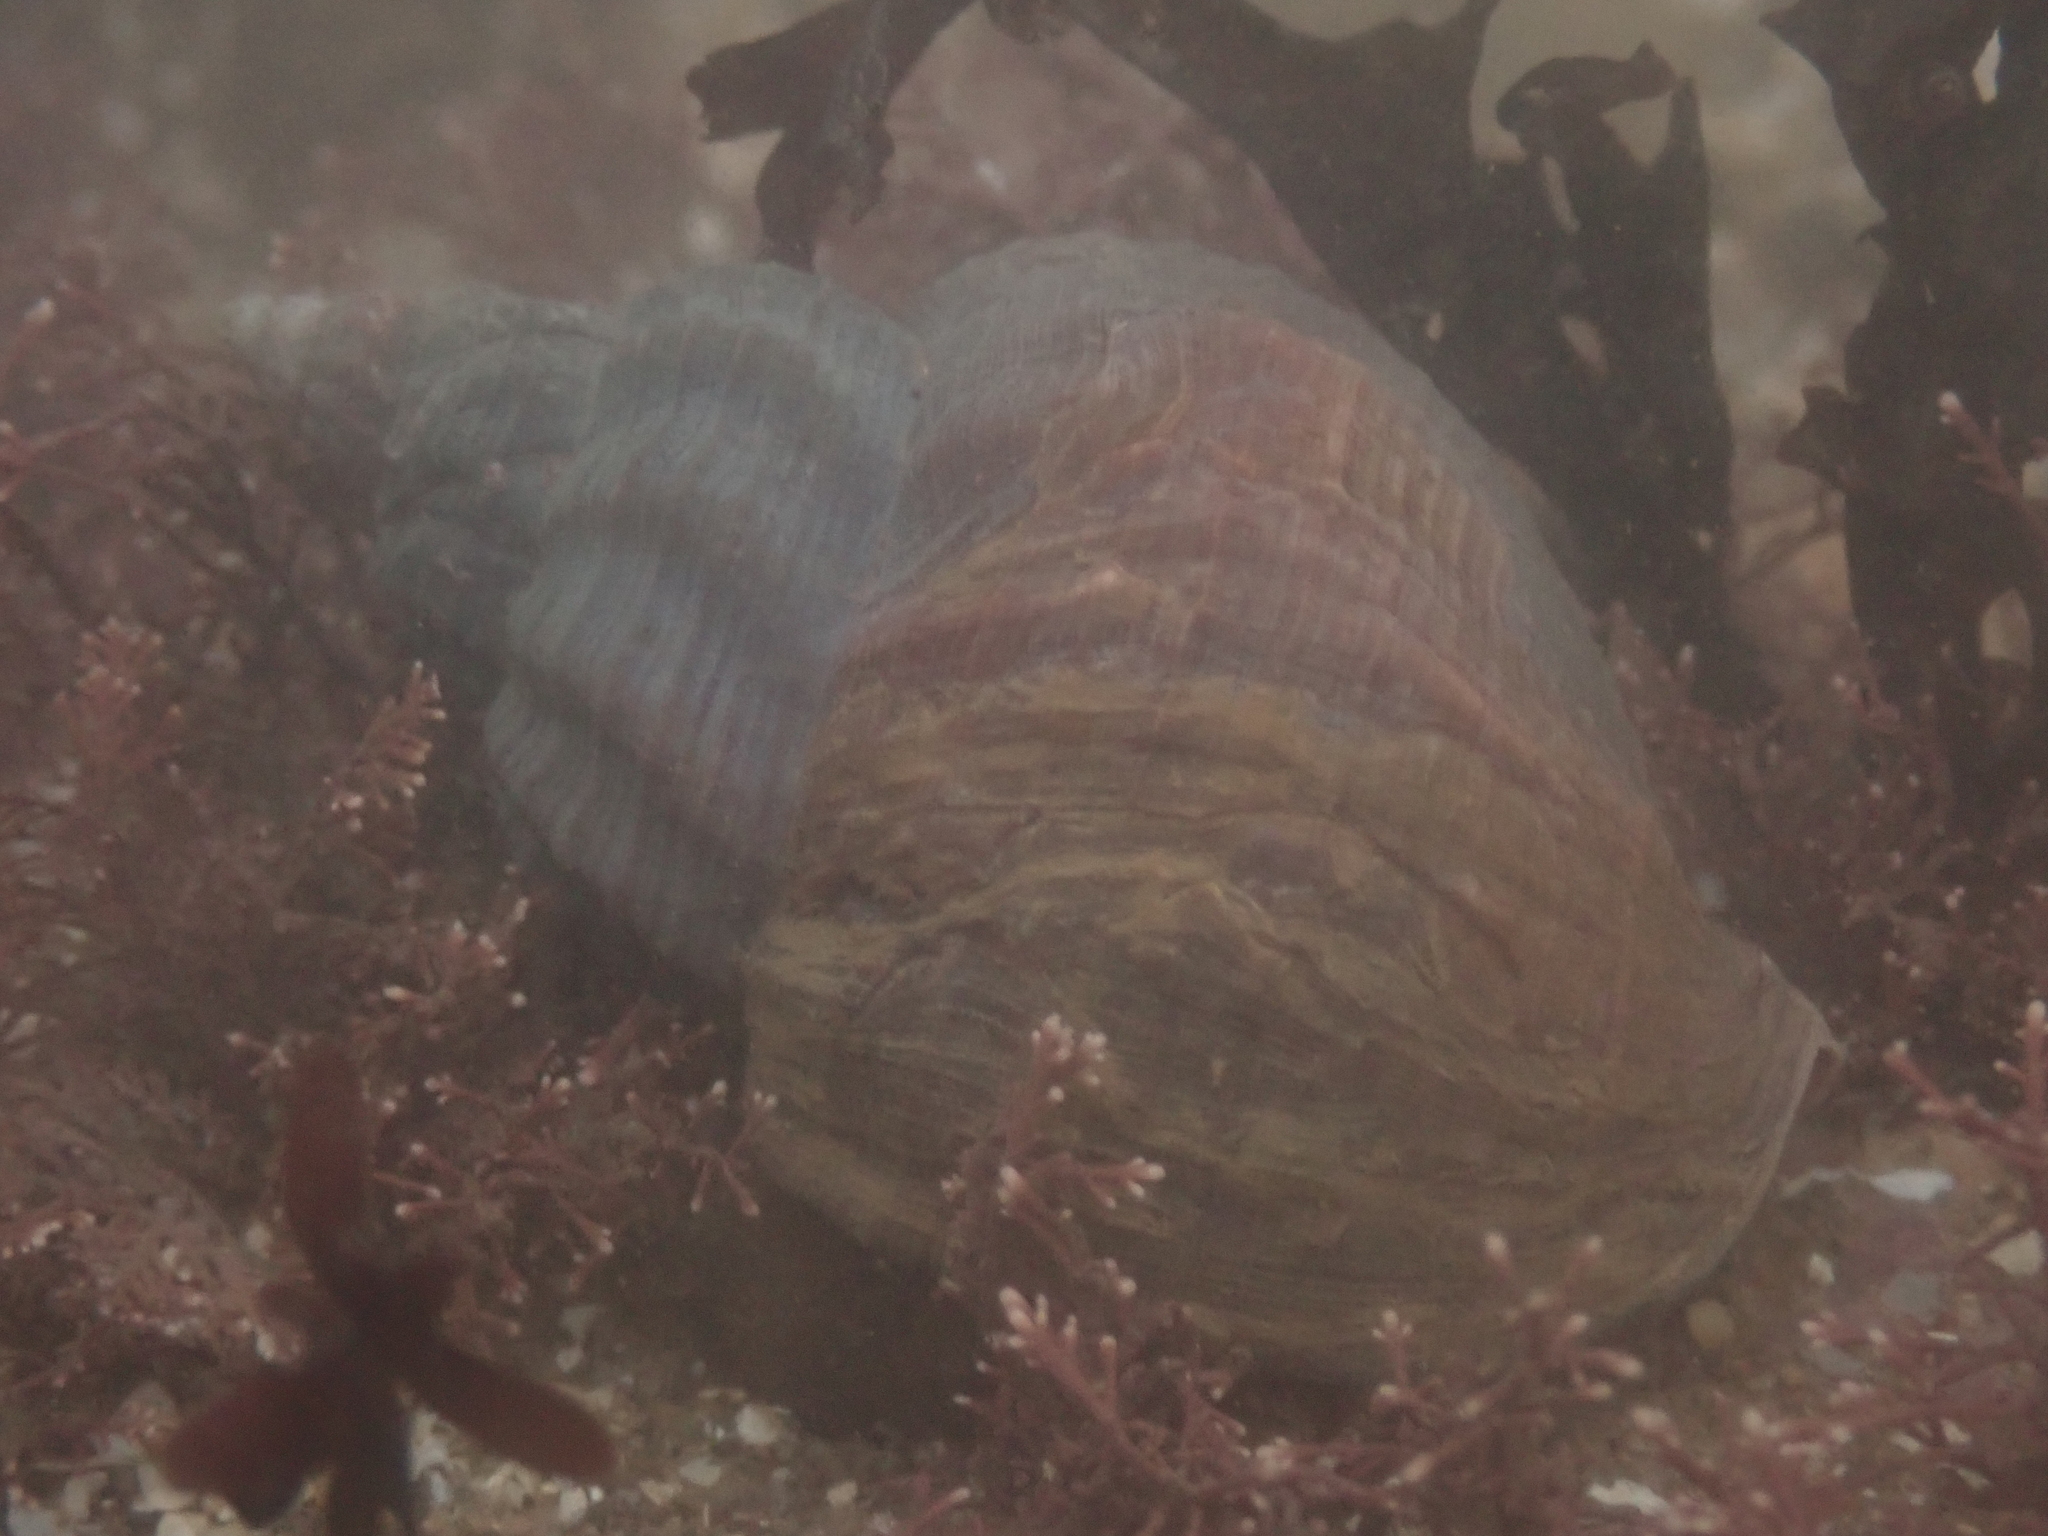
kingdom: Animalia
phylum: Mollusca
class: Gastropoda
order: Neogastropoda
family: Buccinidae
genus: Buccinum
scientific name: Buccinum undatum
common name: Common whelk
